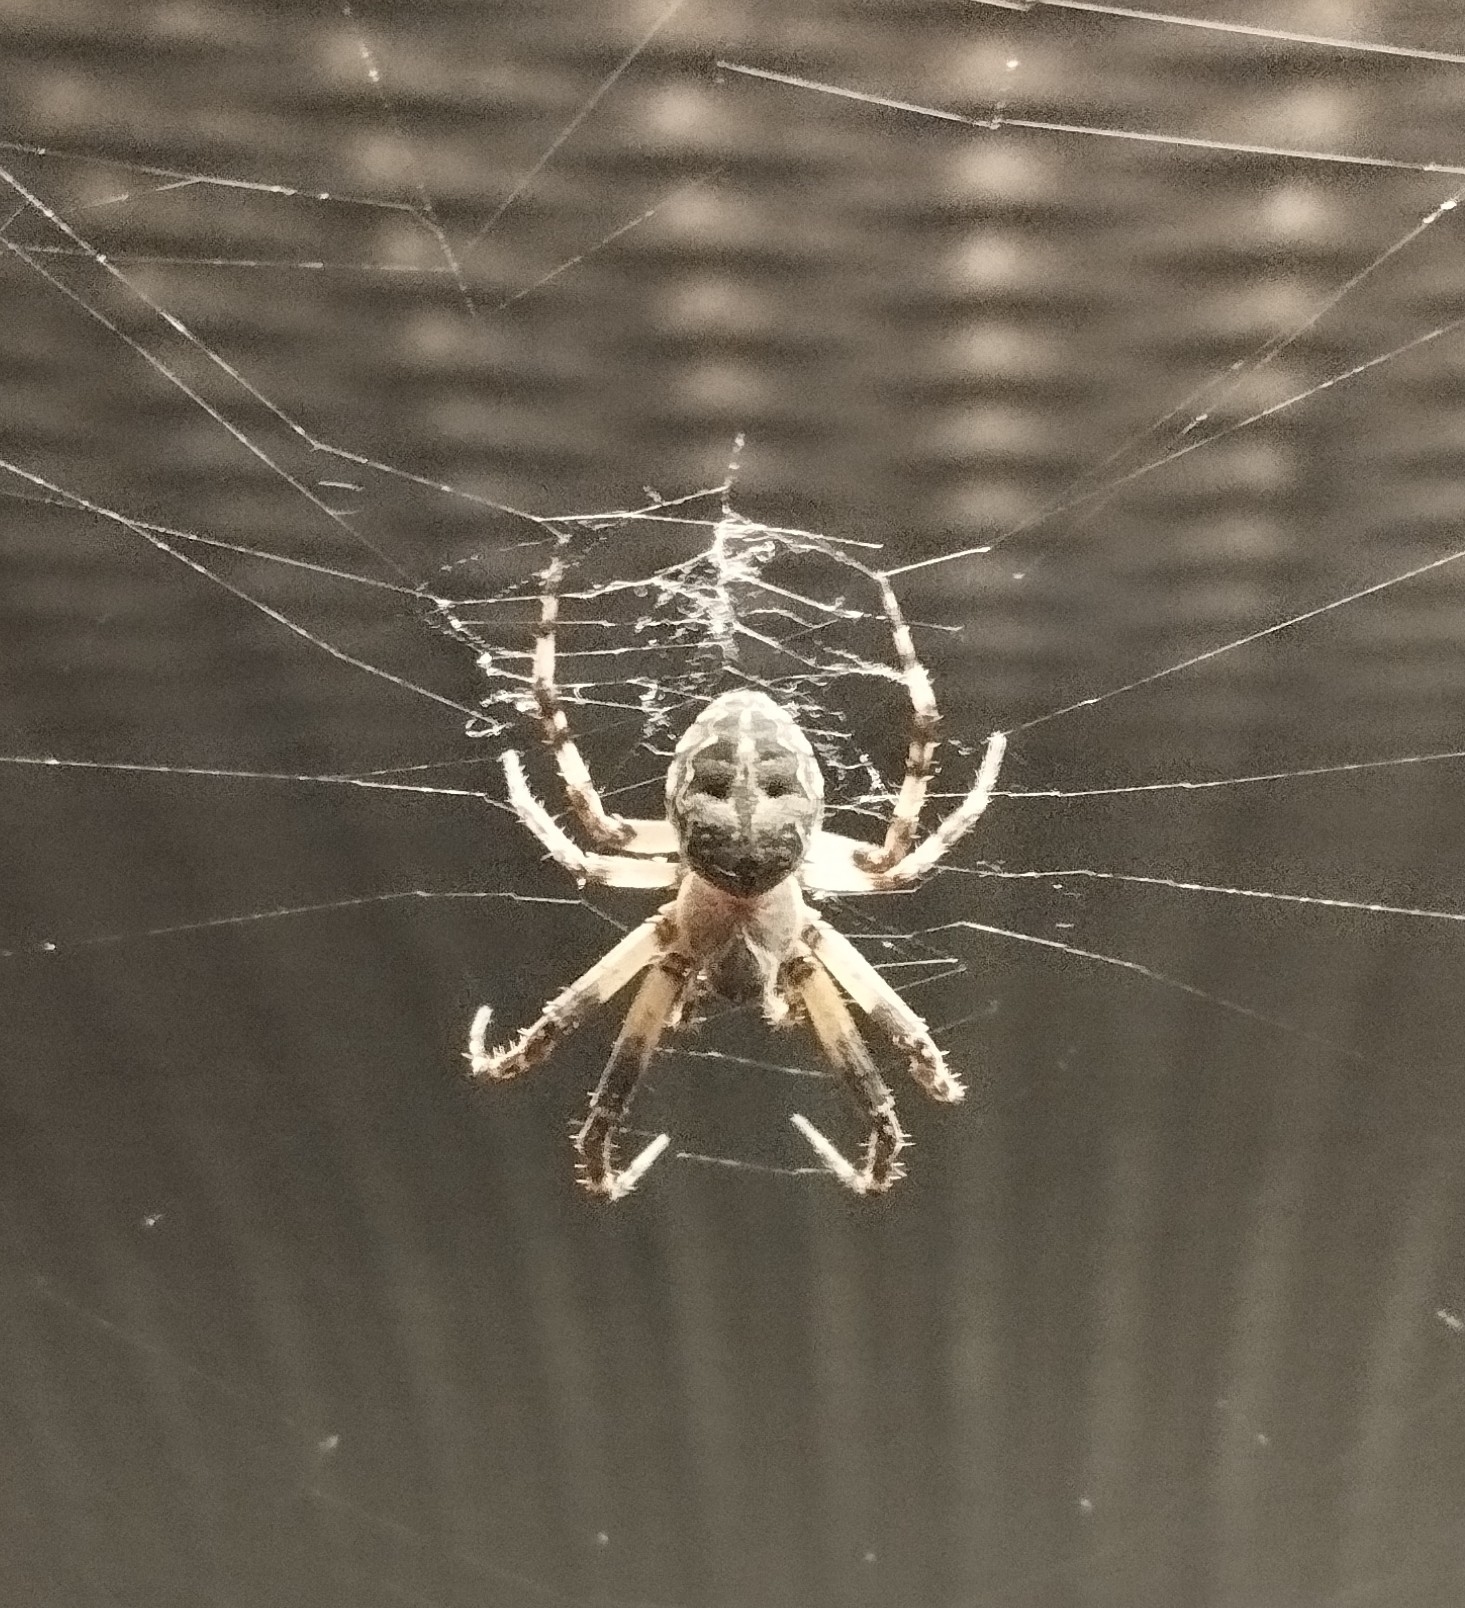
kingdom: Animalia
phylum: Arthropoda
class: Arachnida
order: Araneae
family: Araneidae
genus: Larinioides
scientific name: Larinioides sclopetarius
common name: Bridge orbweaver
